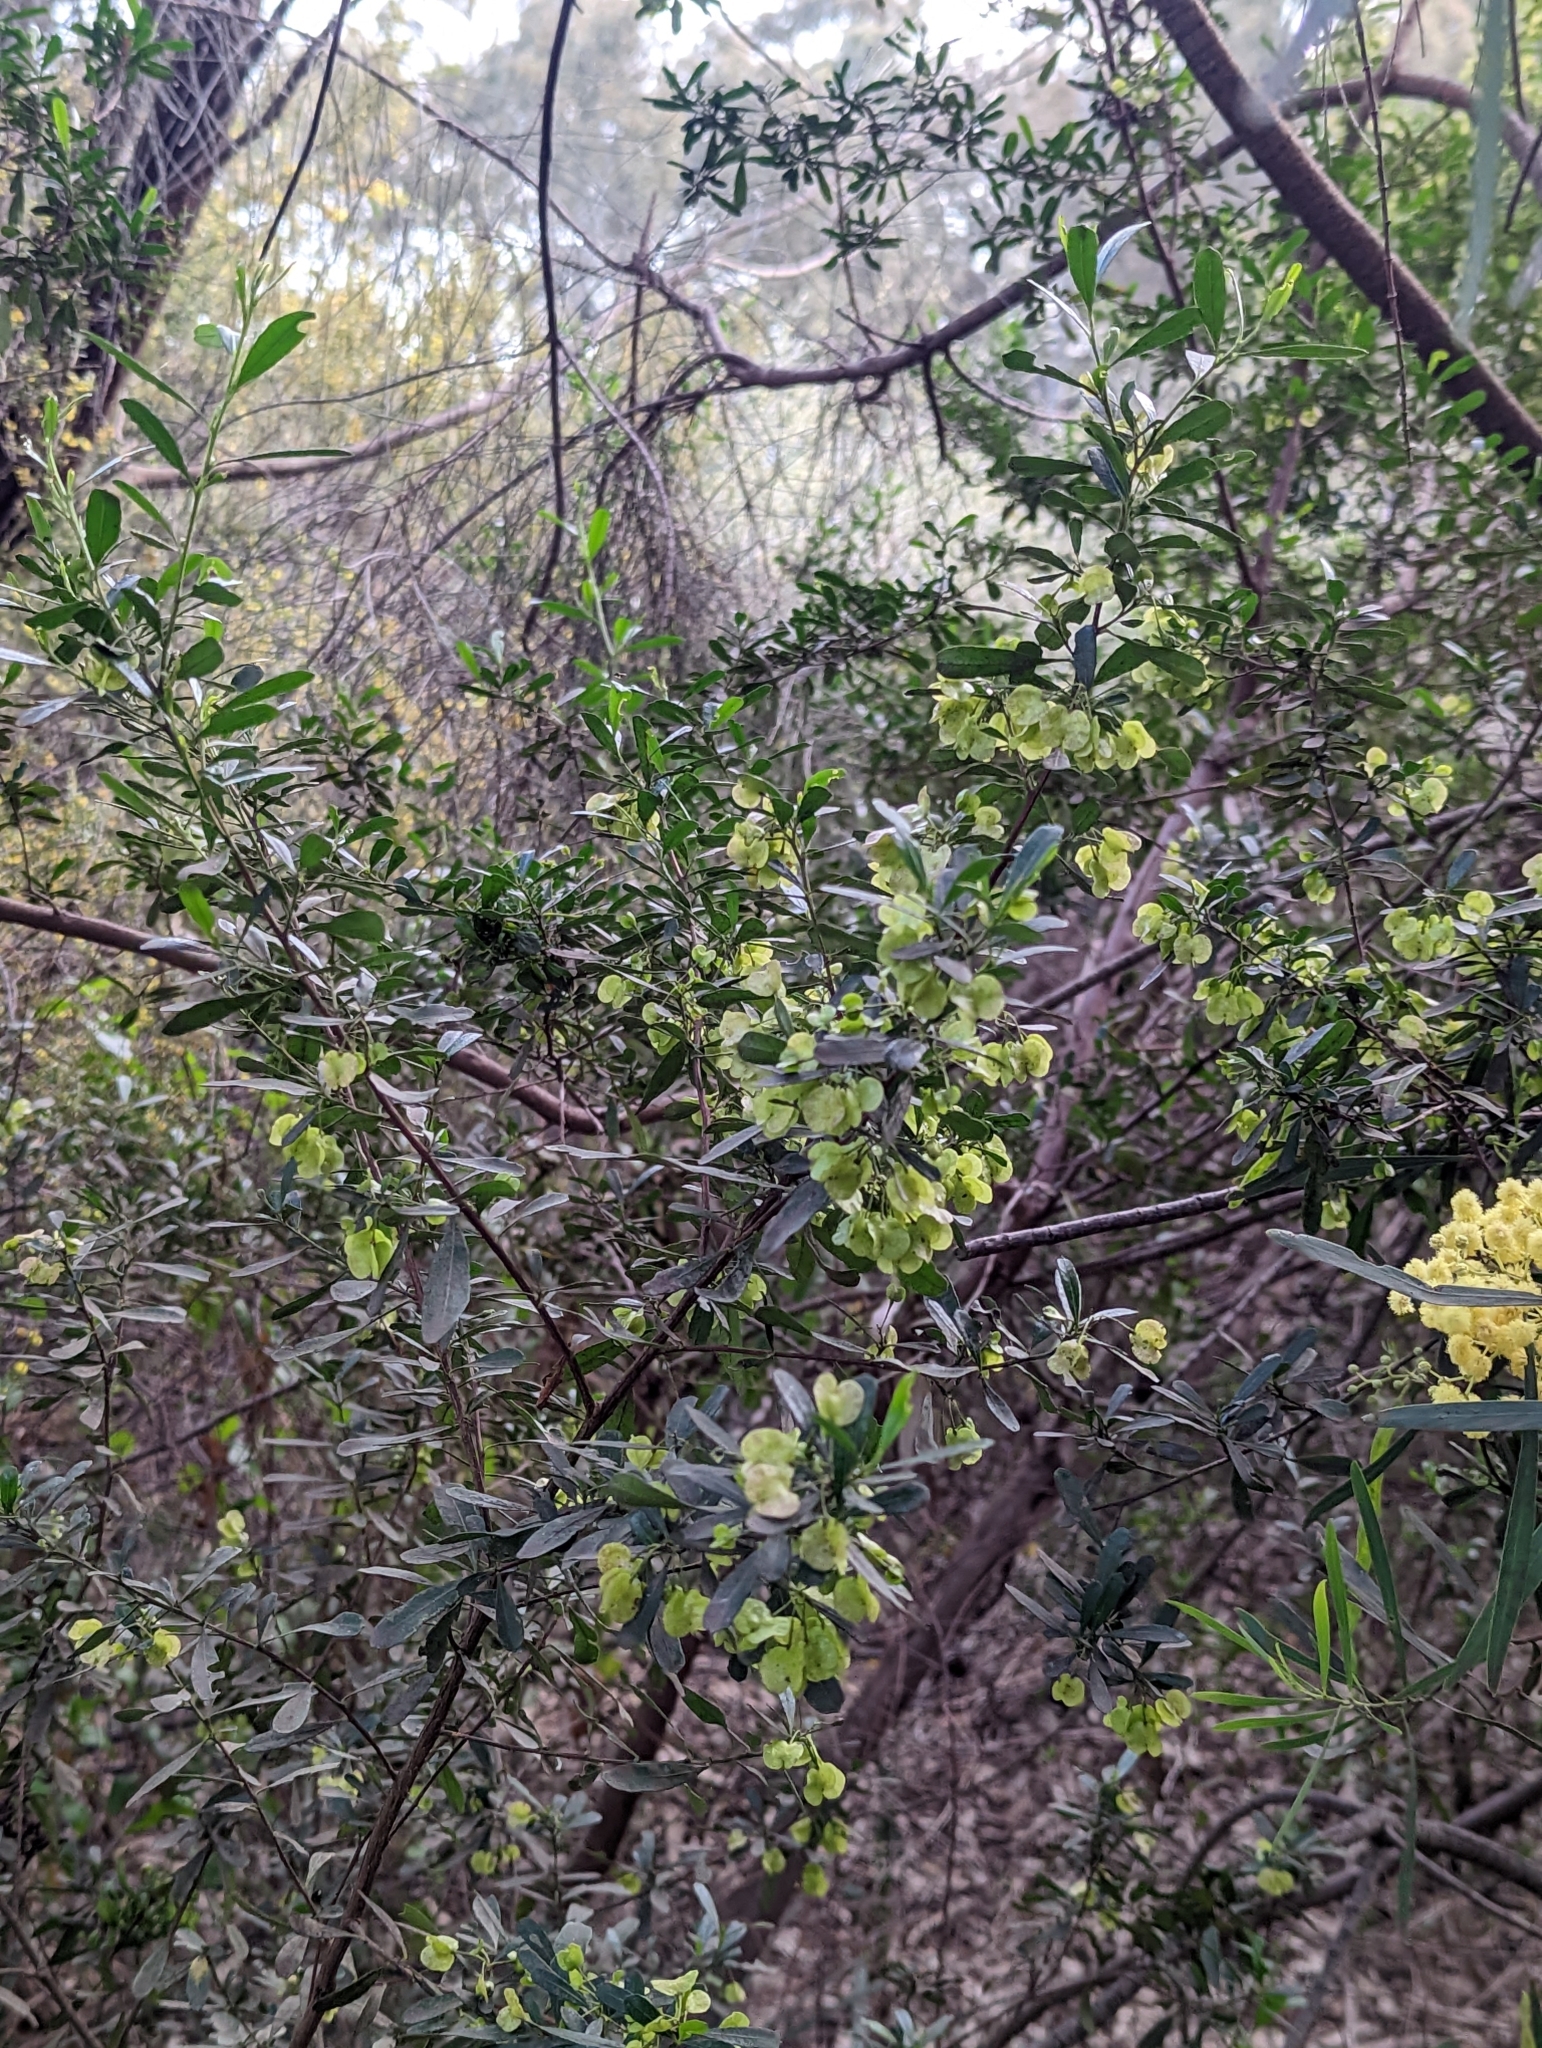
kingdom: Plantae
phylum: Tracheophyta
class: Magnoliopsida
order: Sapindales
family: Sapindaceae
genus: Dodonaea
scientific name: Dodonaea viscosa
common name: Hopbush
